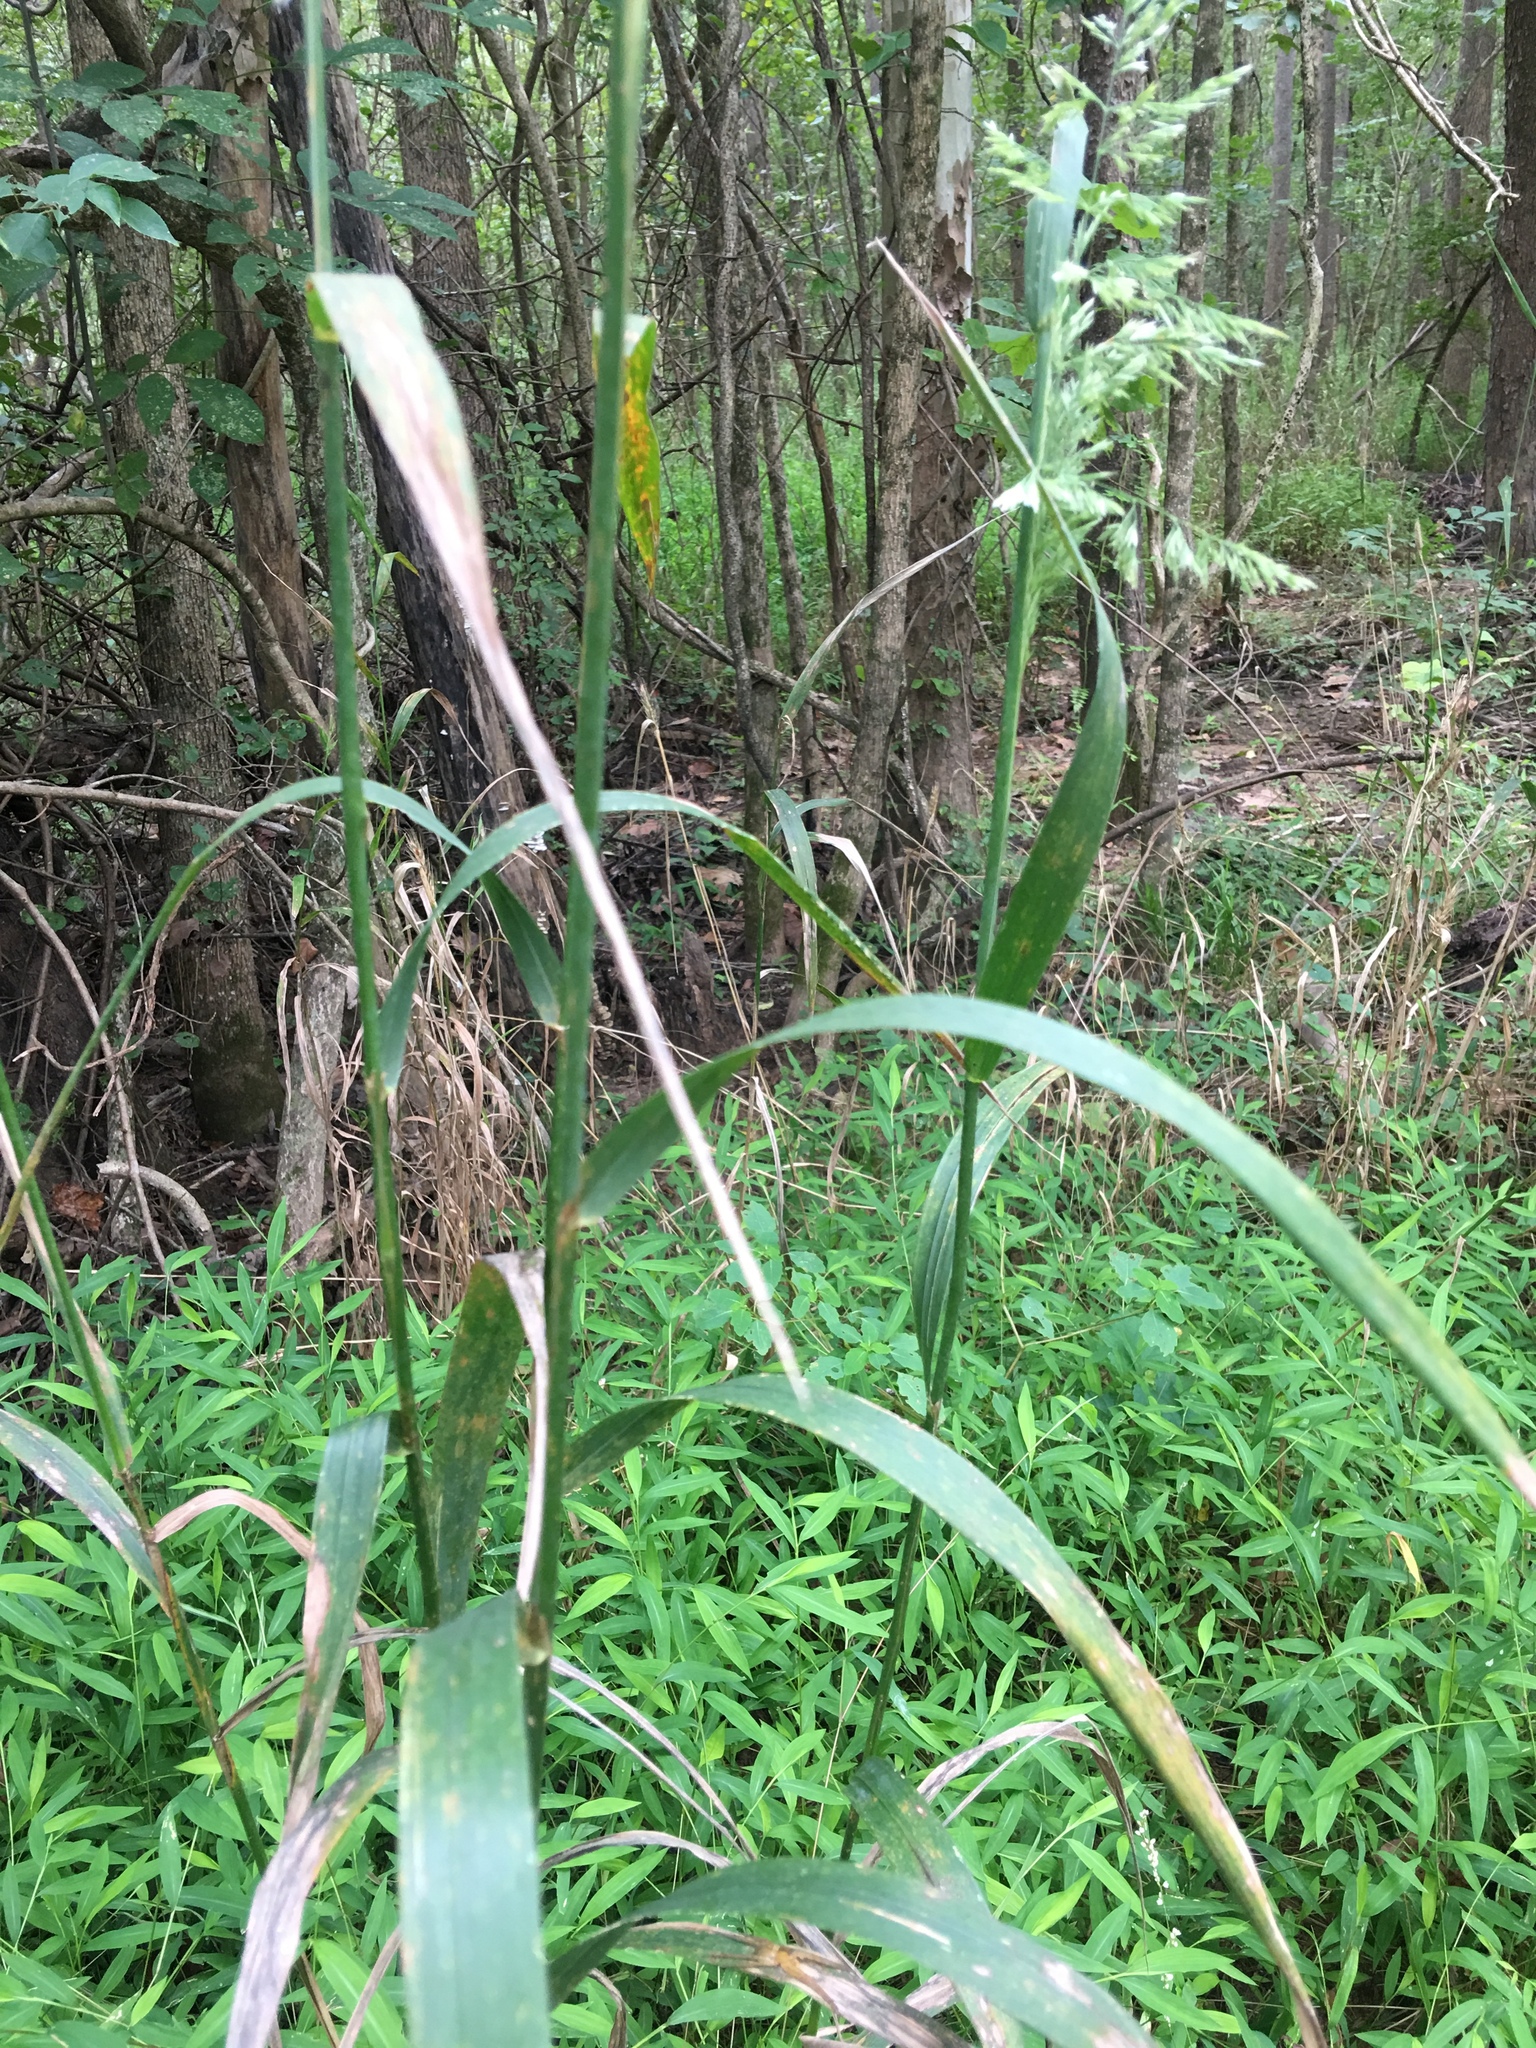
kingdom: Plantae
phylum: Tracheophyta
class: Liliopsida
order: Poales
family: Poaceae
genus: Cinna
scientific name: Cinna arundinacea
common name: Stout woodreed
